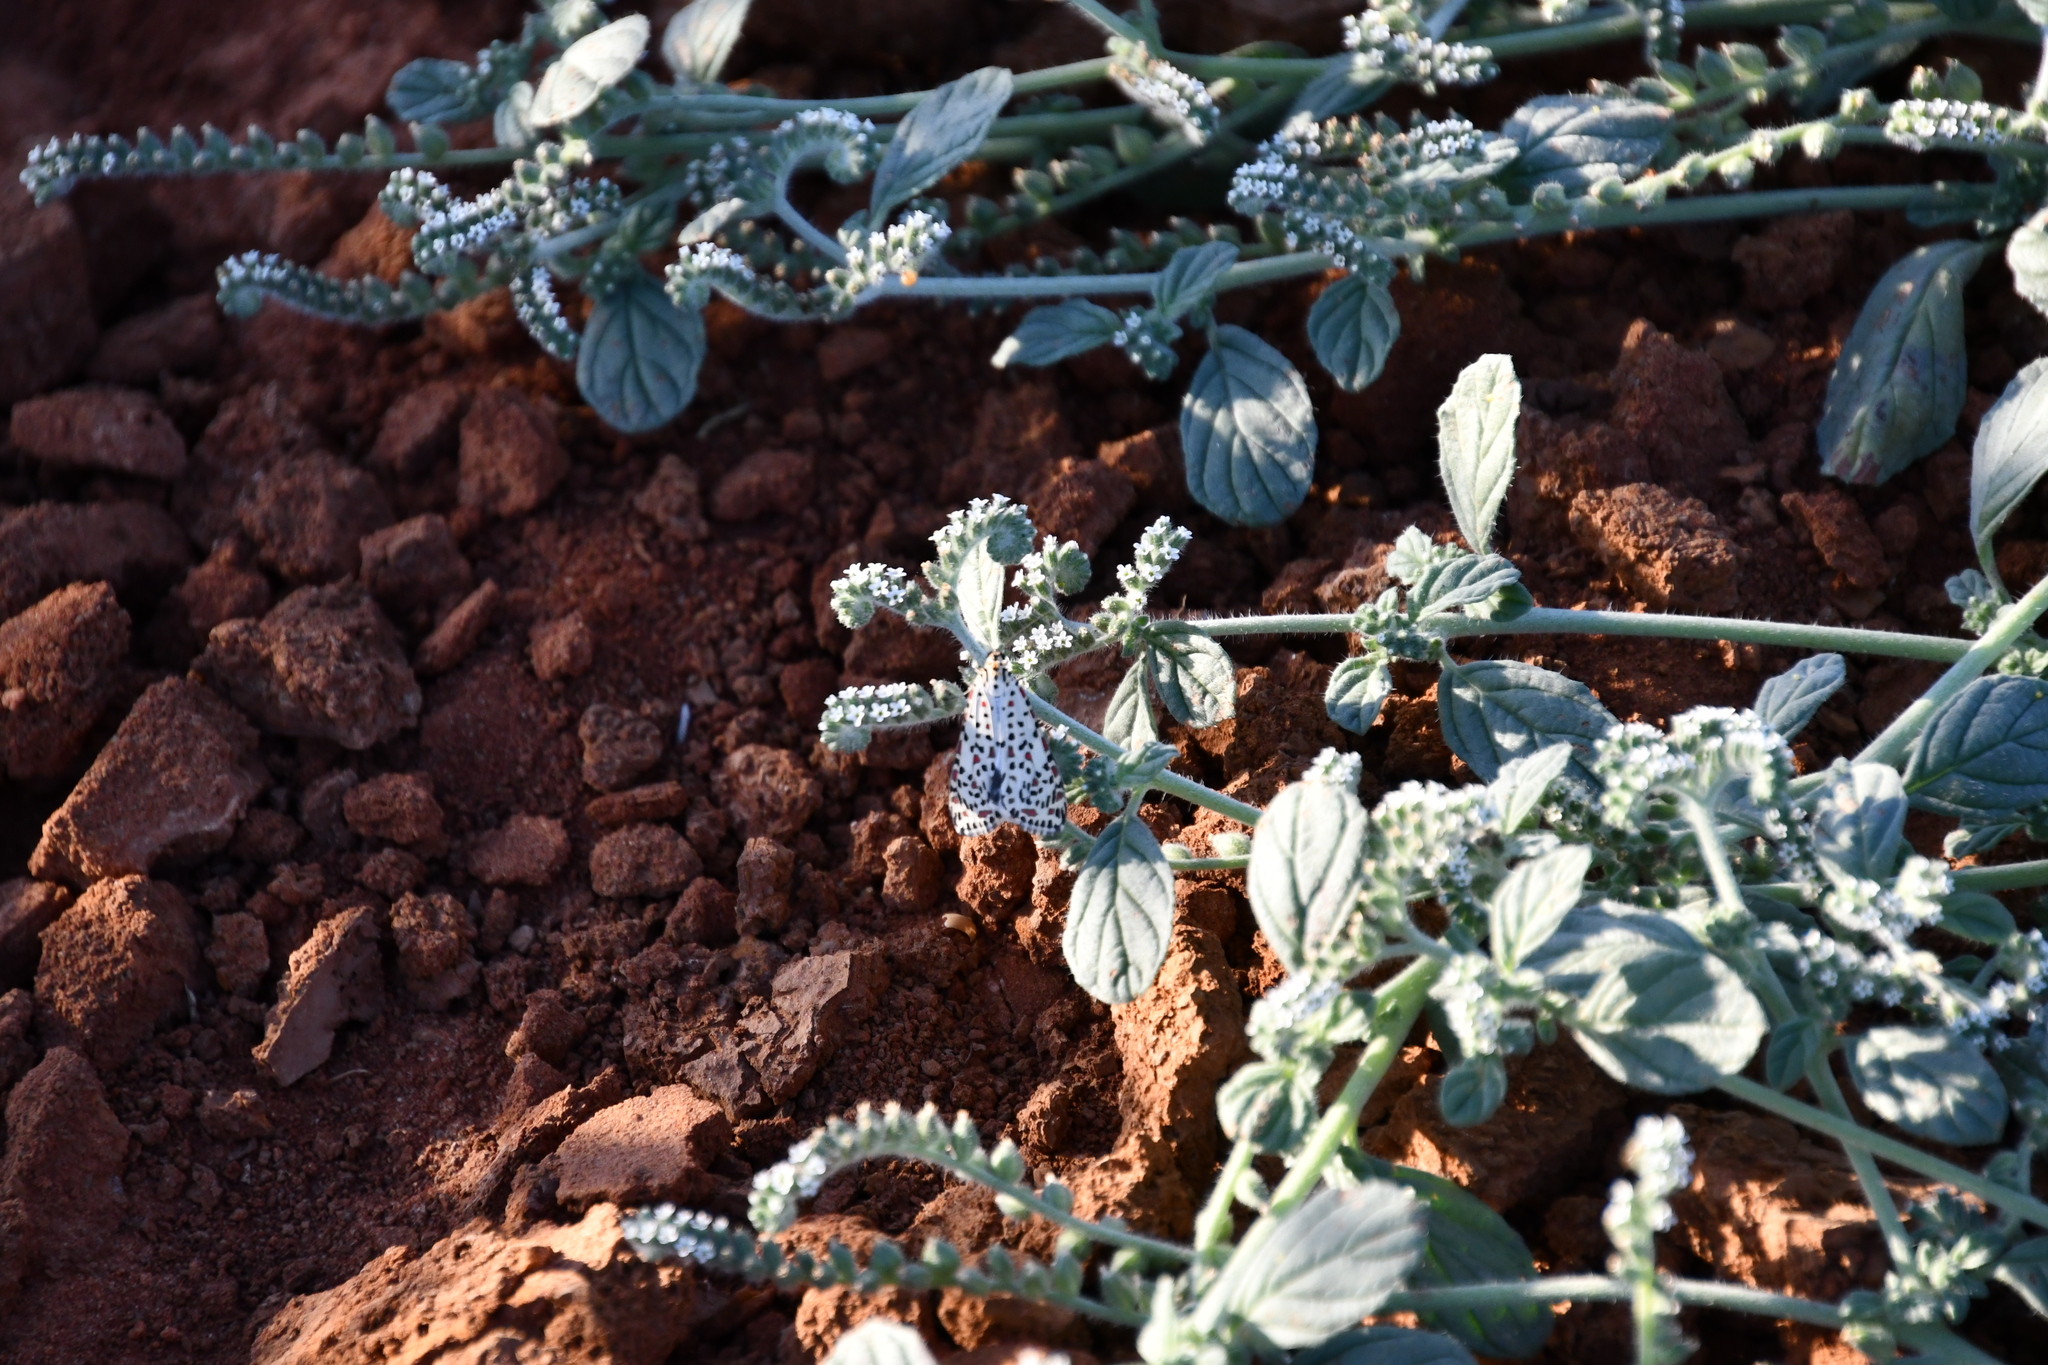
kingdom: Animalia
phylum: Arthropoda
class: Insecta
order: Lepidoptera
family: Erebidae
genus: Utetheisa
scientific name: Utetheisa pulchelloides
